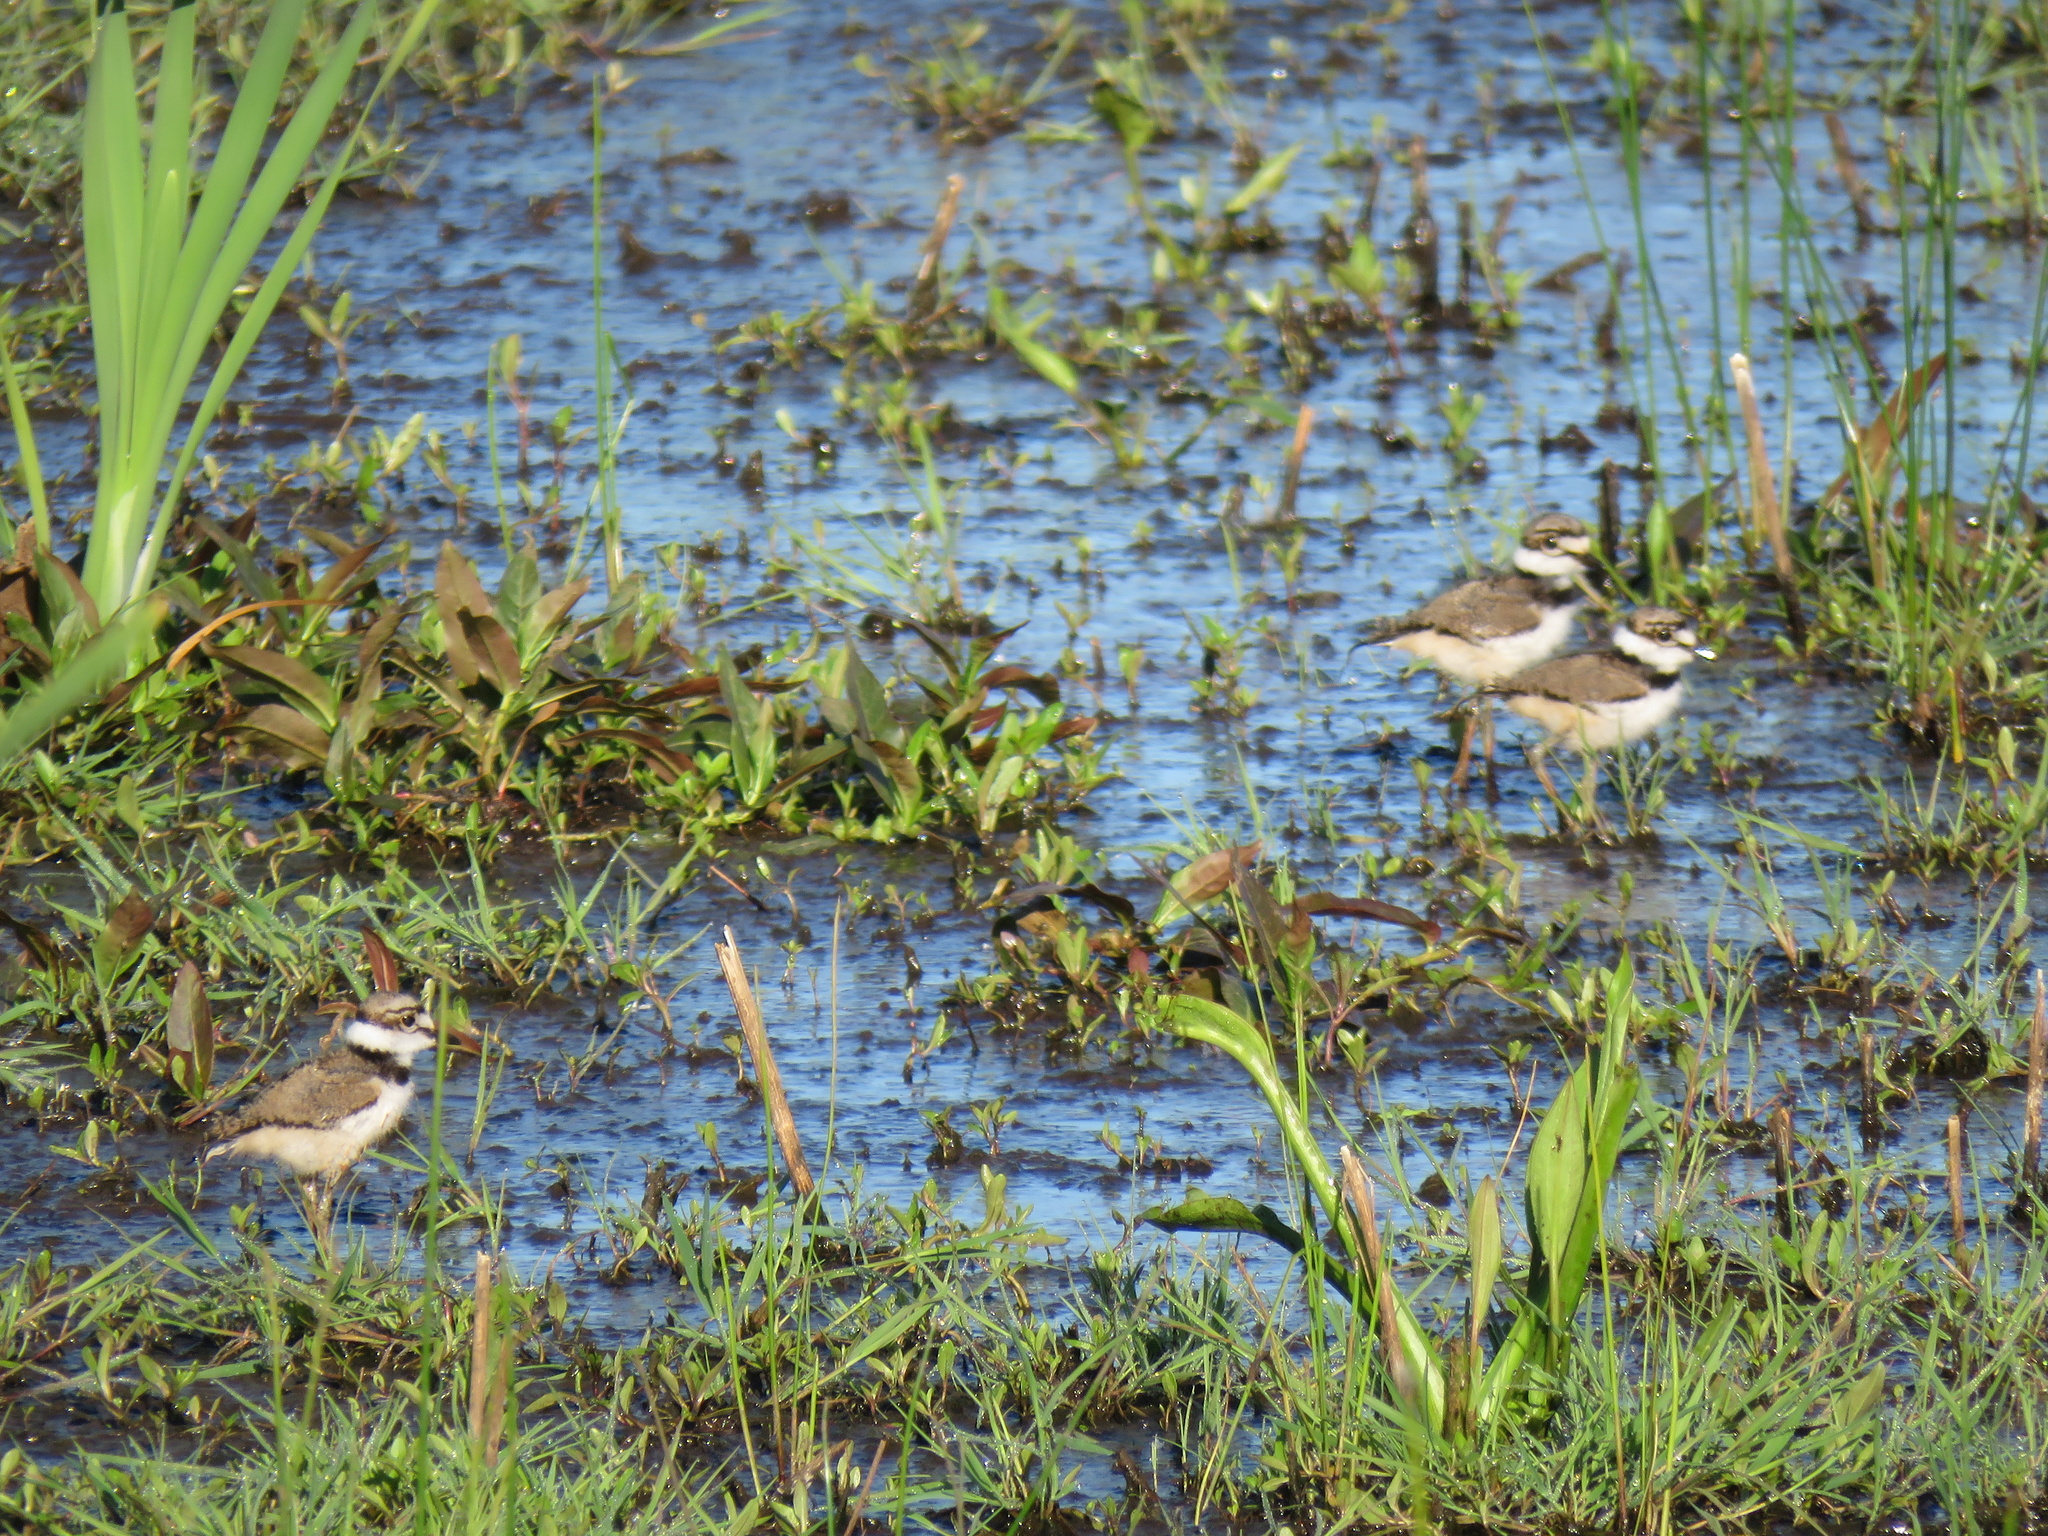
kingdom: Animalia
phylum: Chordata
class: Aves
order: Charadriiformes
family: Charadriidae
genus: Charadrius
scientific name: Charadrius vociferus
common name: Killdeer
